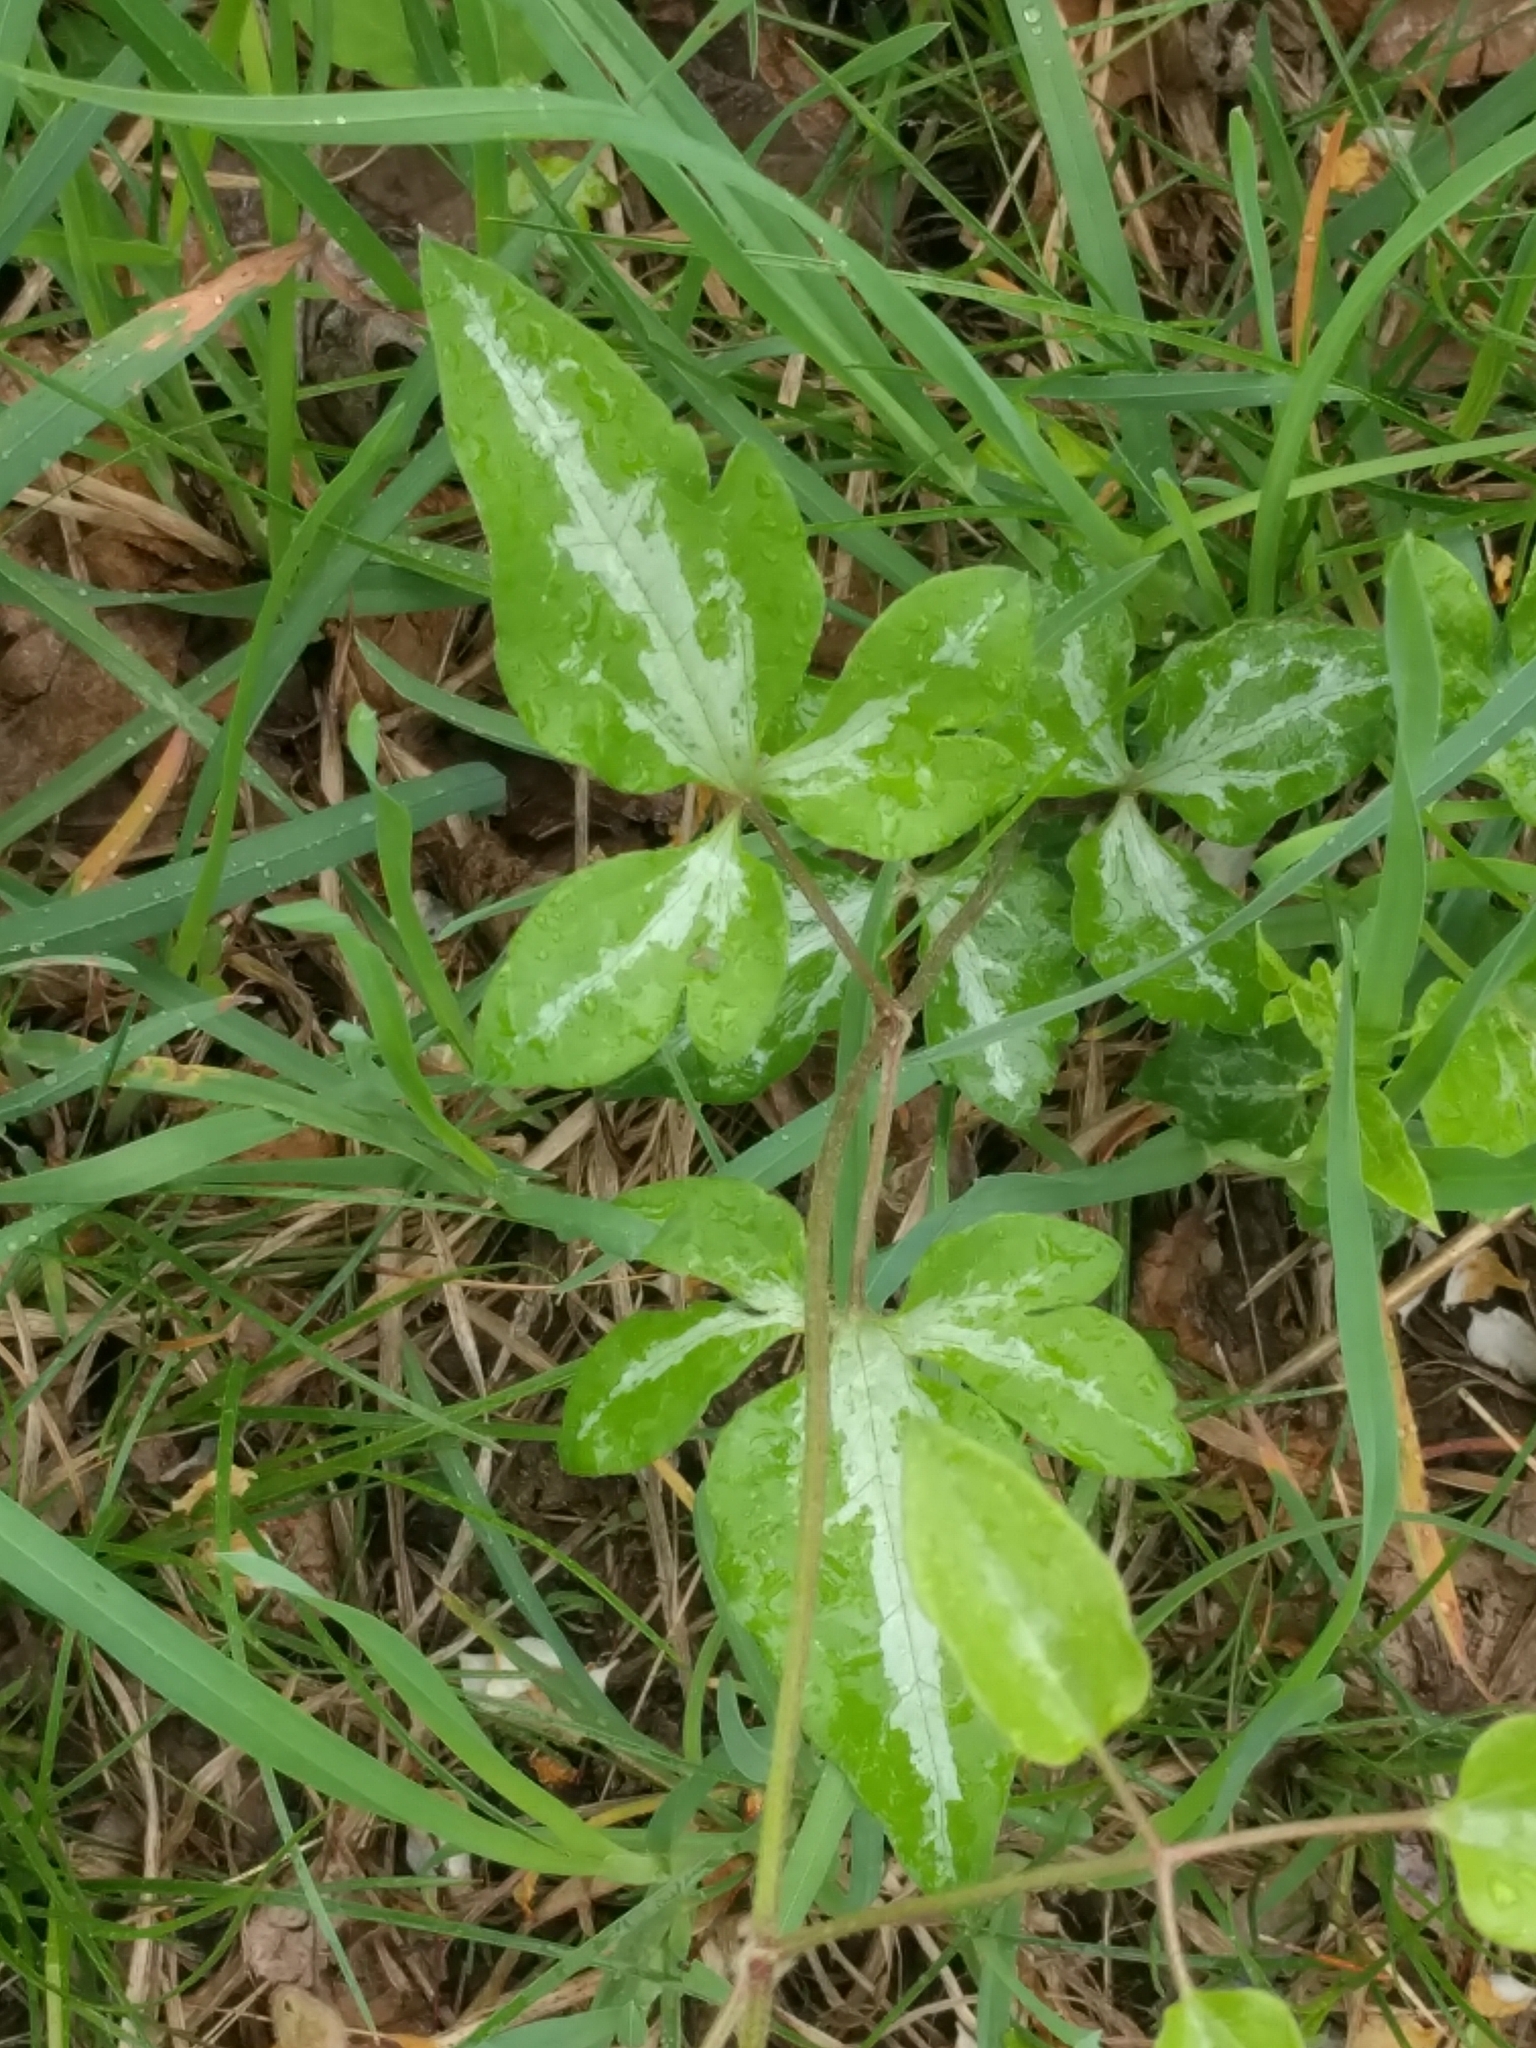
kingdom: Plantae
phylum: Tracheophyta
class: Magnoliopsida
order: Ranunculales
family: Ranunculaceae
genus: Clematis
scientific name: Clematis terniflora
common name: Sweet autumn clematis
